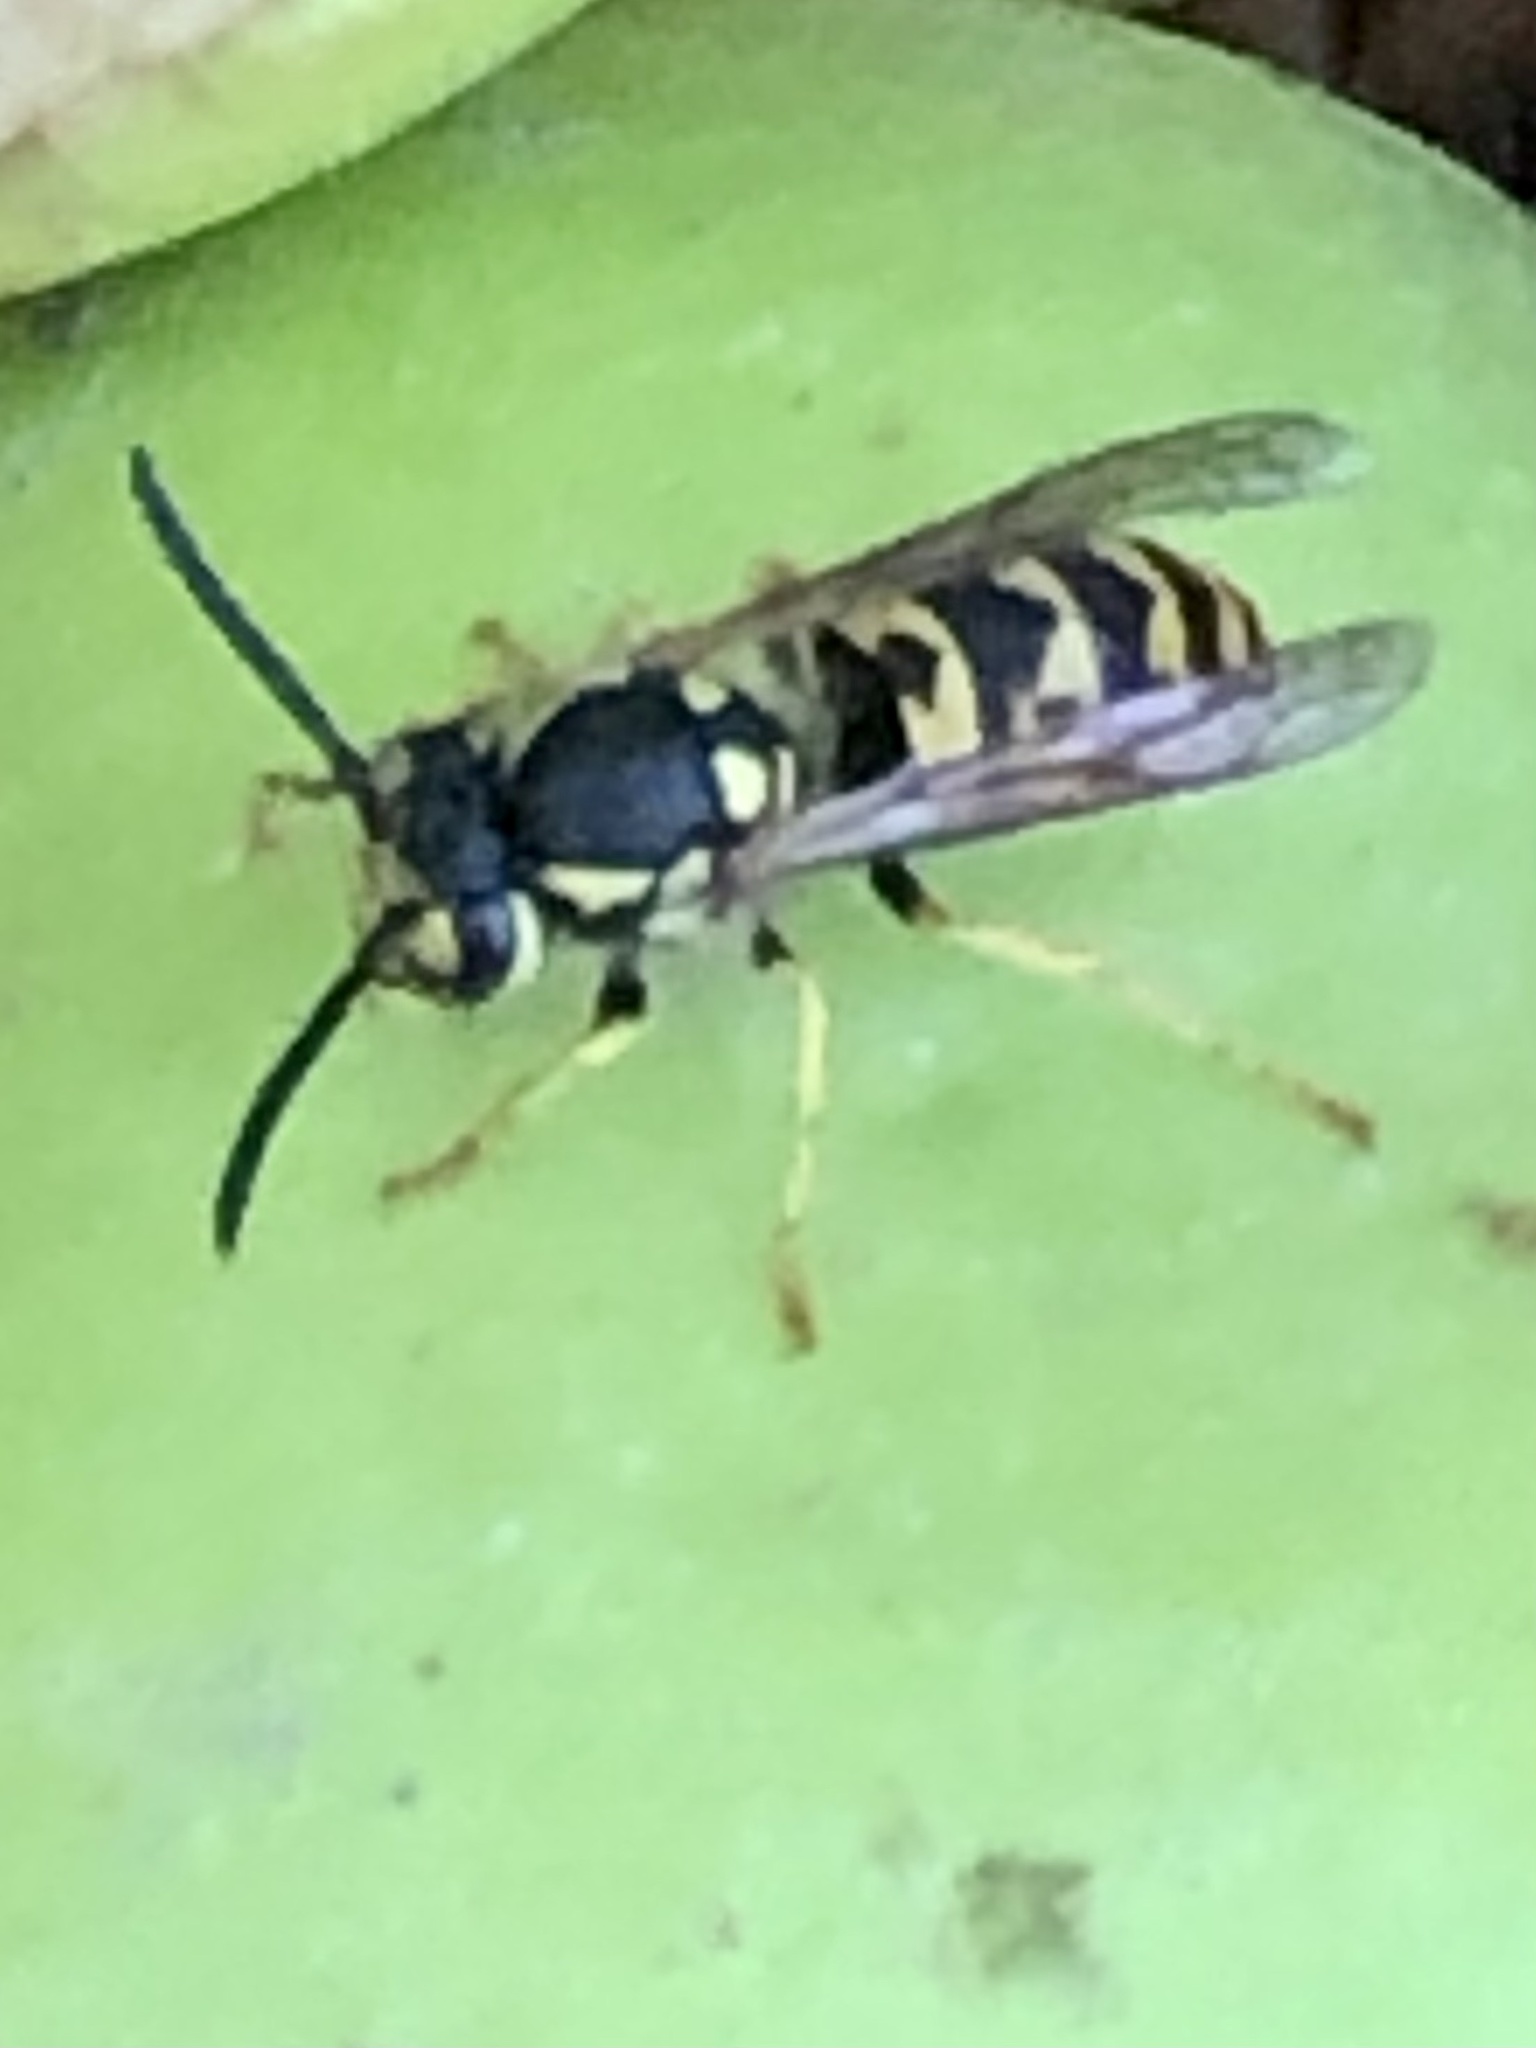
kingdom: Animalia
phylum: Arthropoda
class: Insecta
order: Hymenoptera
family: Vespidae
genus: Vespula
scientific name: Vespula germanica
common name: German wasp
